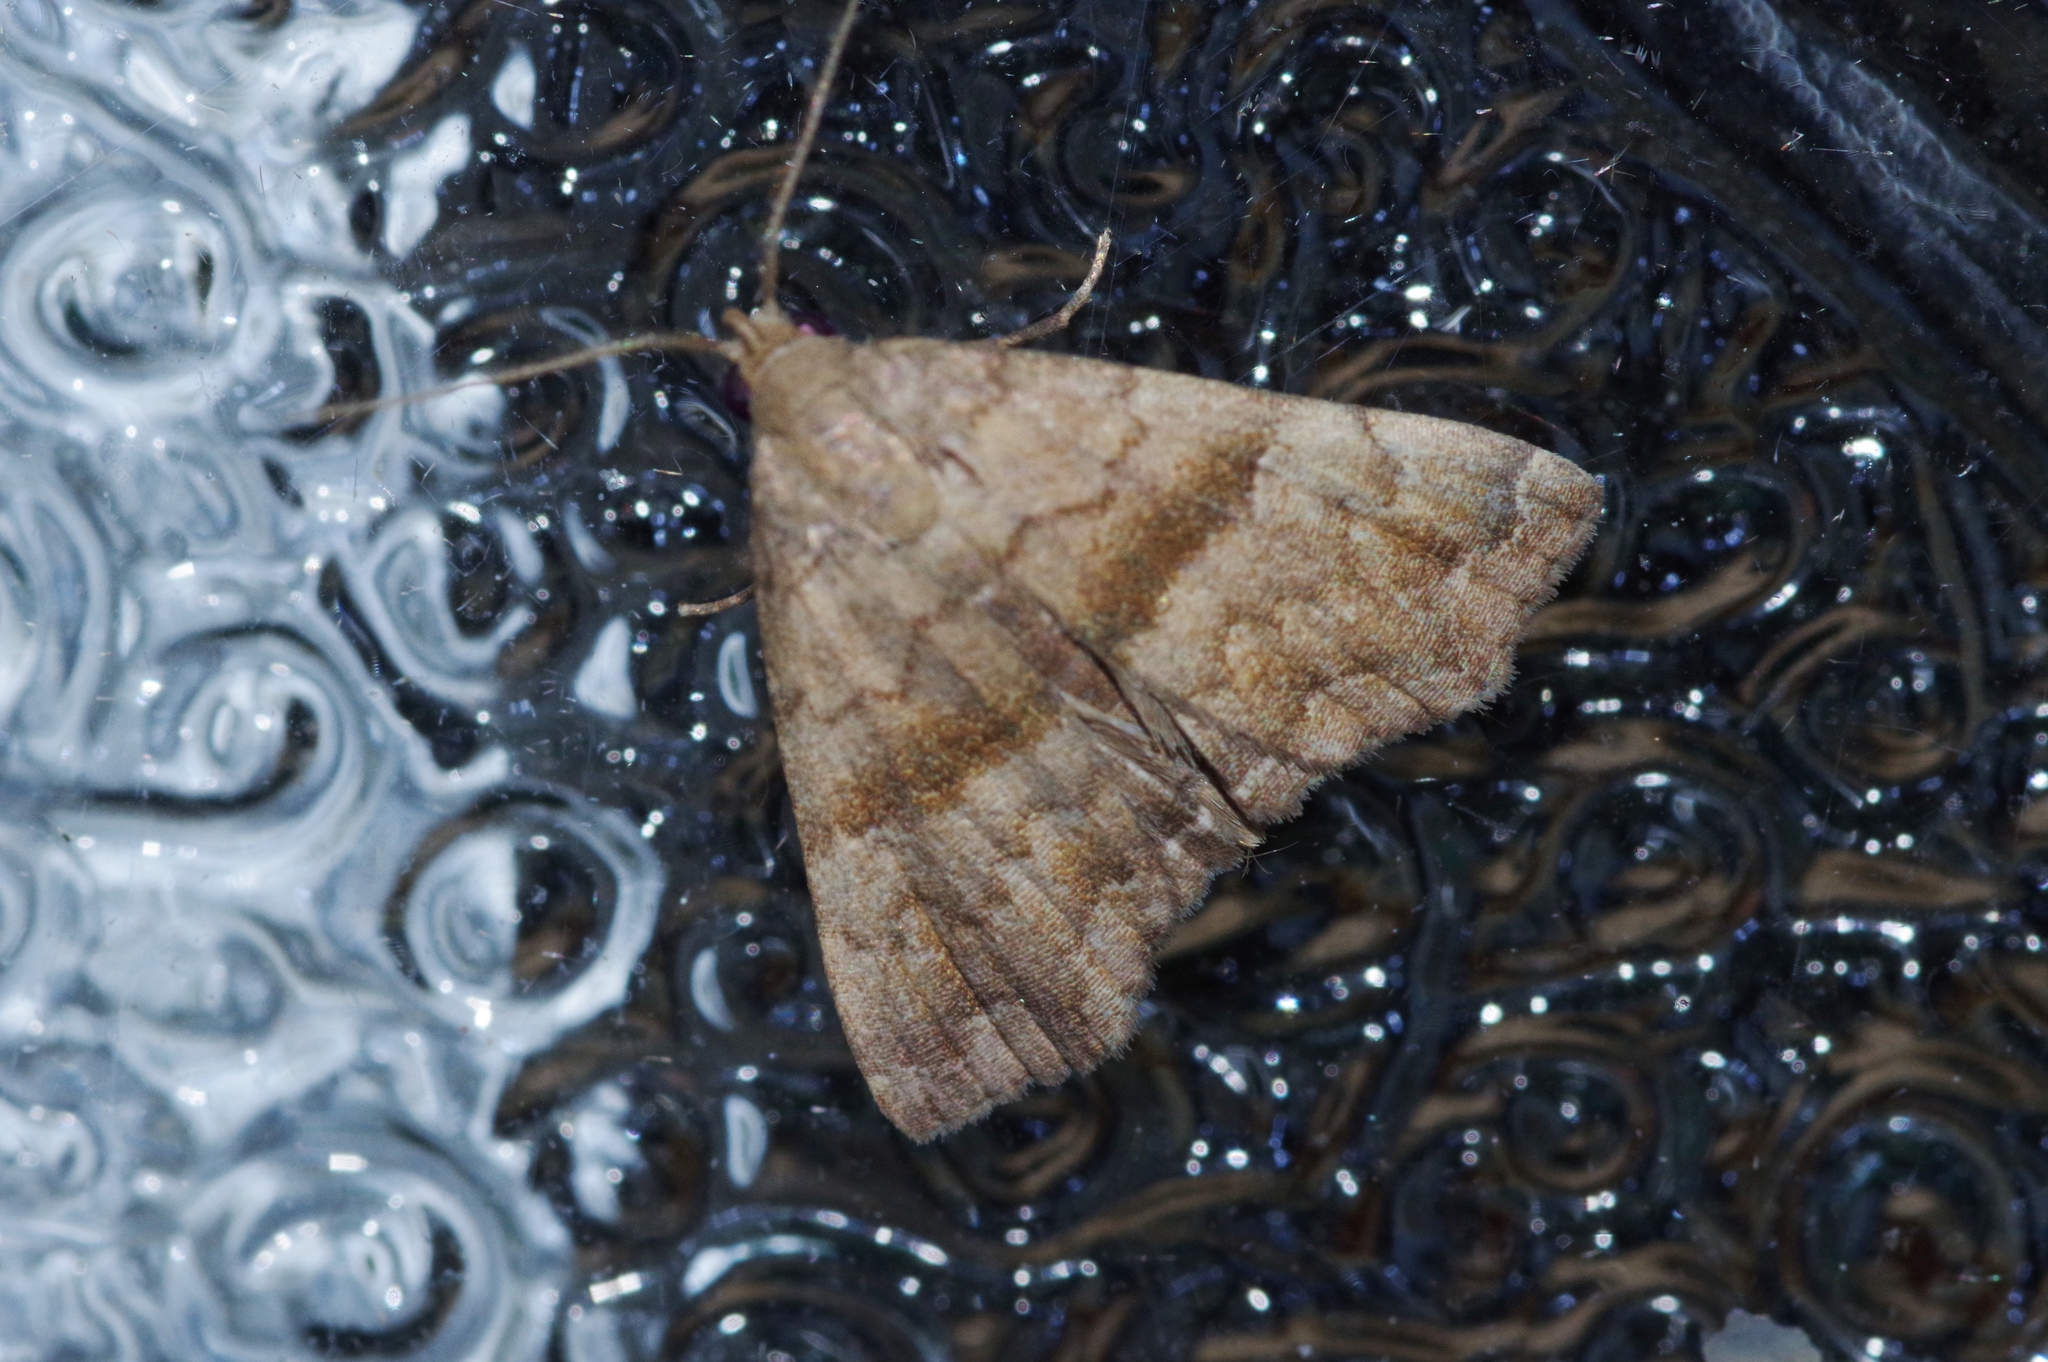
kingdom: Animalia
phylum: Arthropoda
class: Insecta
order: Lepidoptera
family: Erebidae
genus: Polypogon
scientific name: Polypogon Hipoepa fractalis
